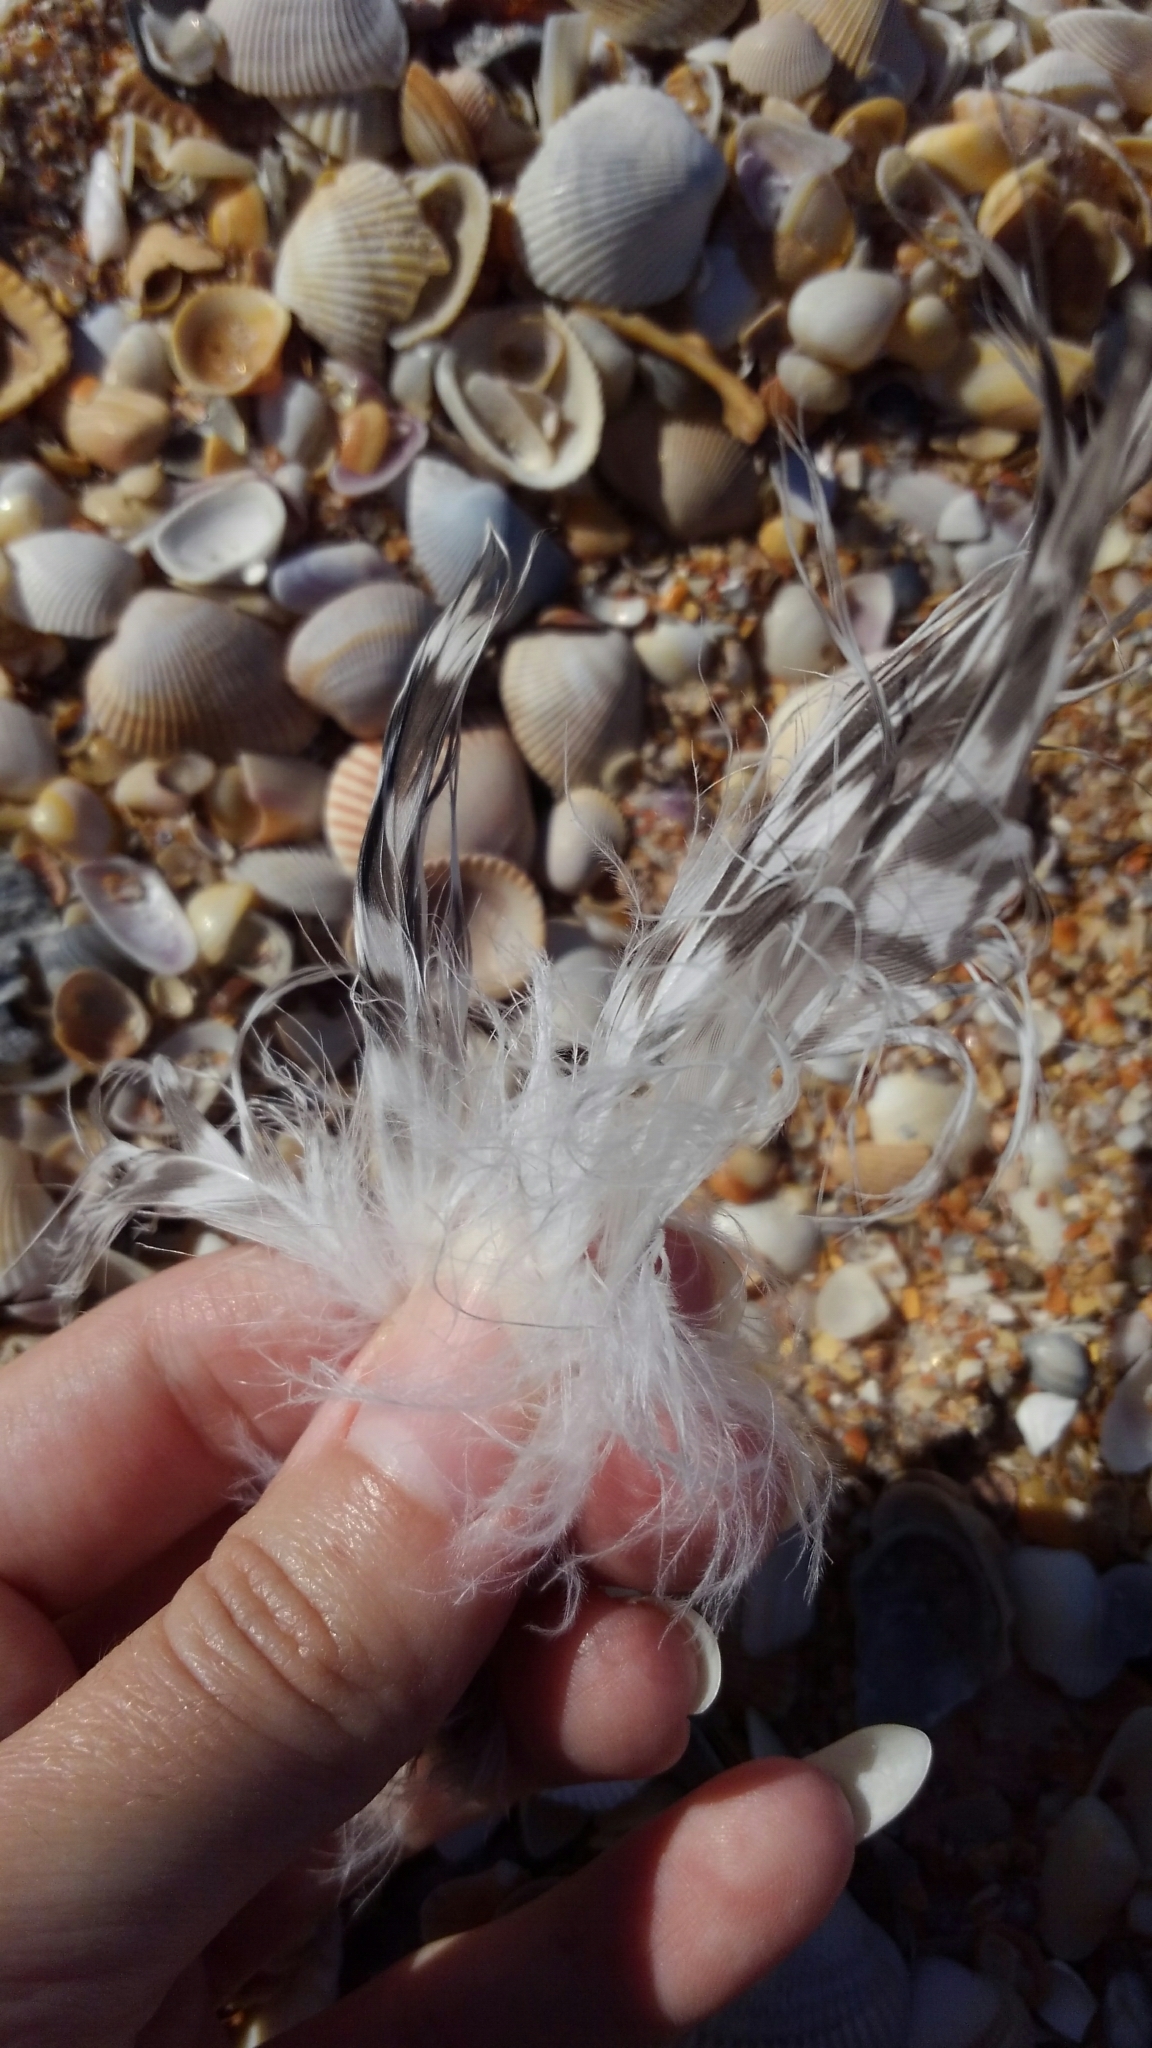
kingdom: Animalia
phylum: Chordata
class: Aves
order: Charadriiformes
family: Laridae
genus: Larus
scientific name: Larus
